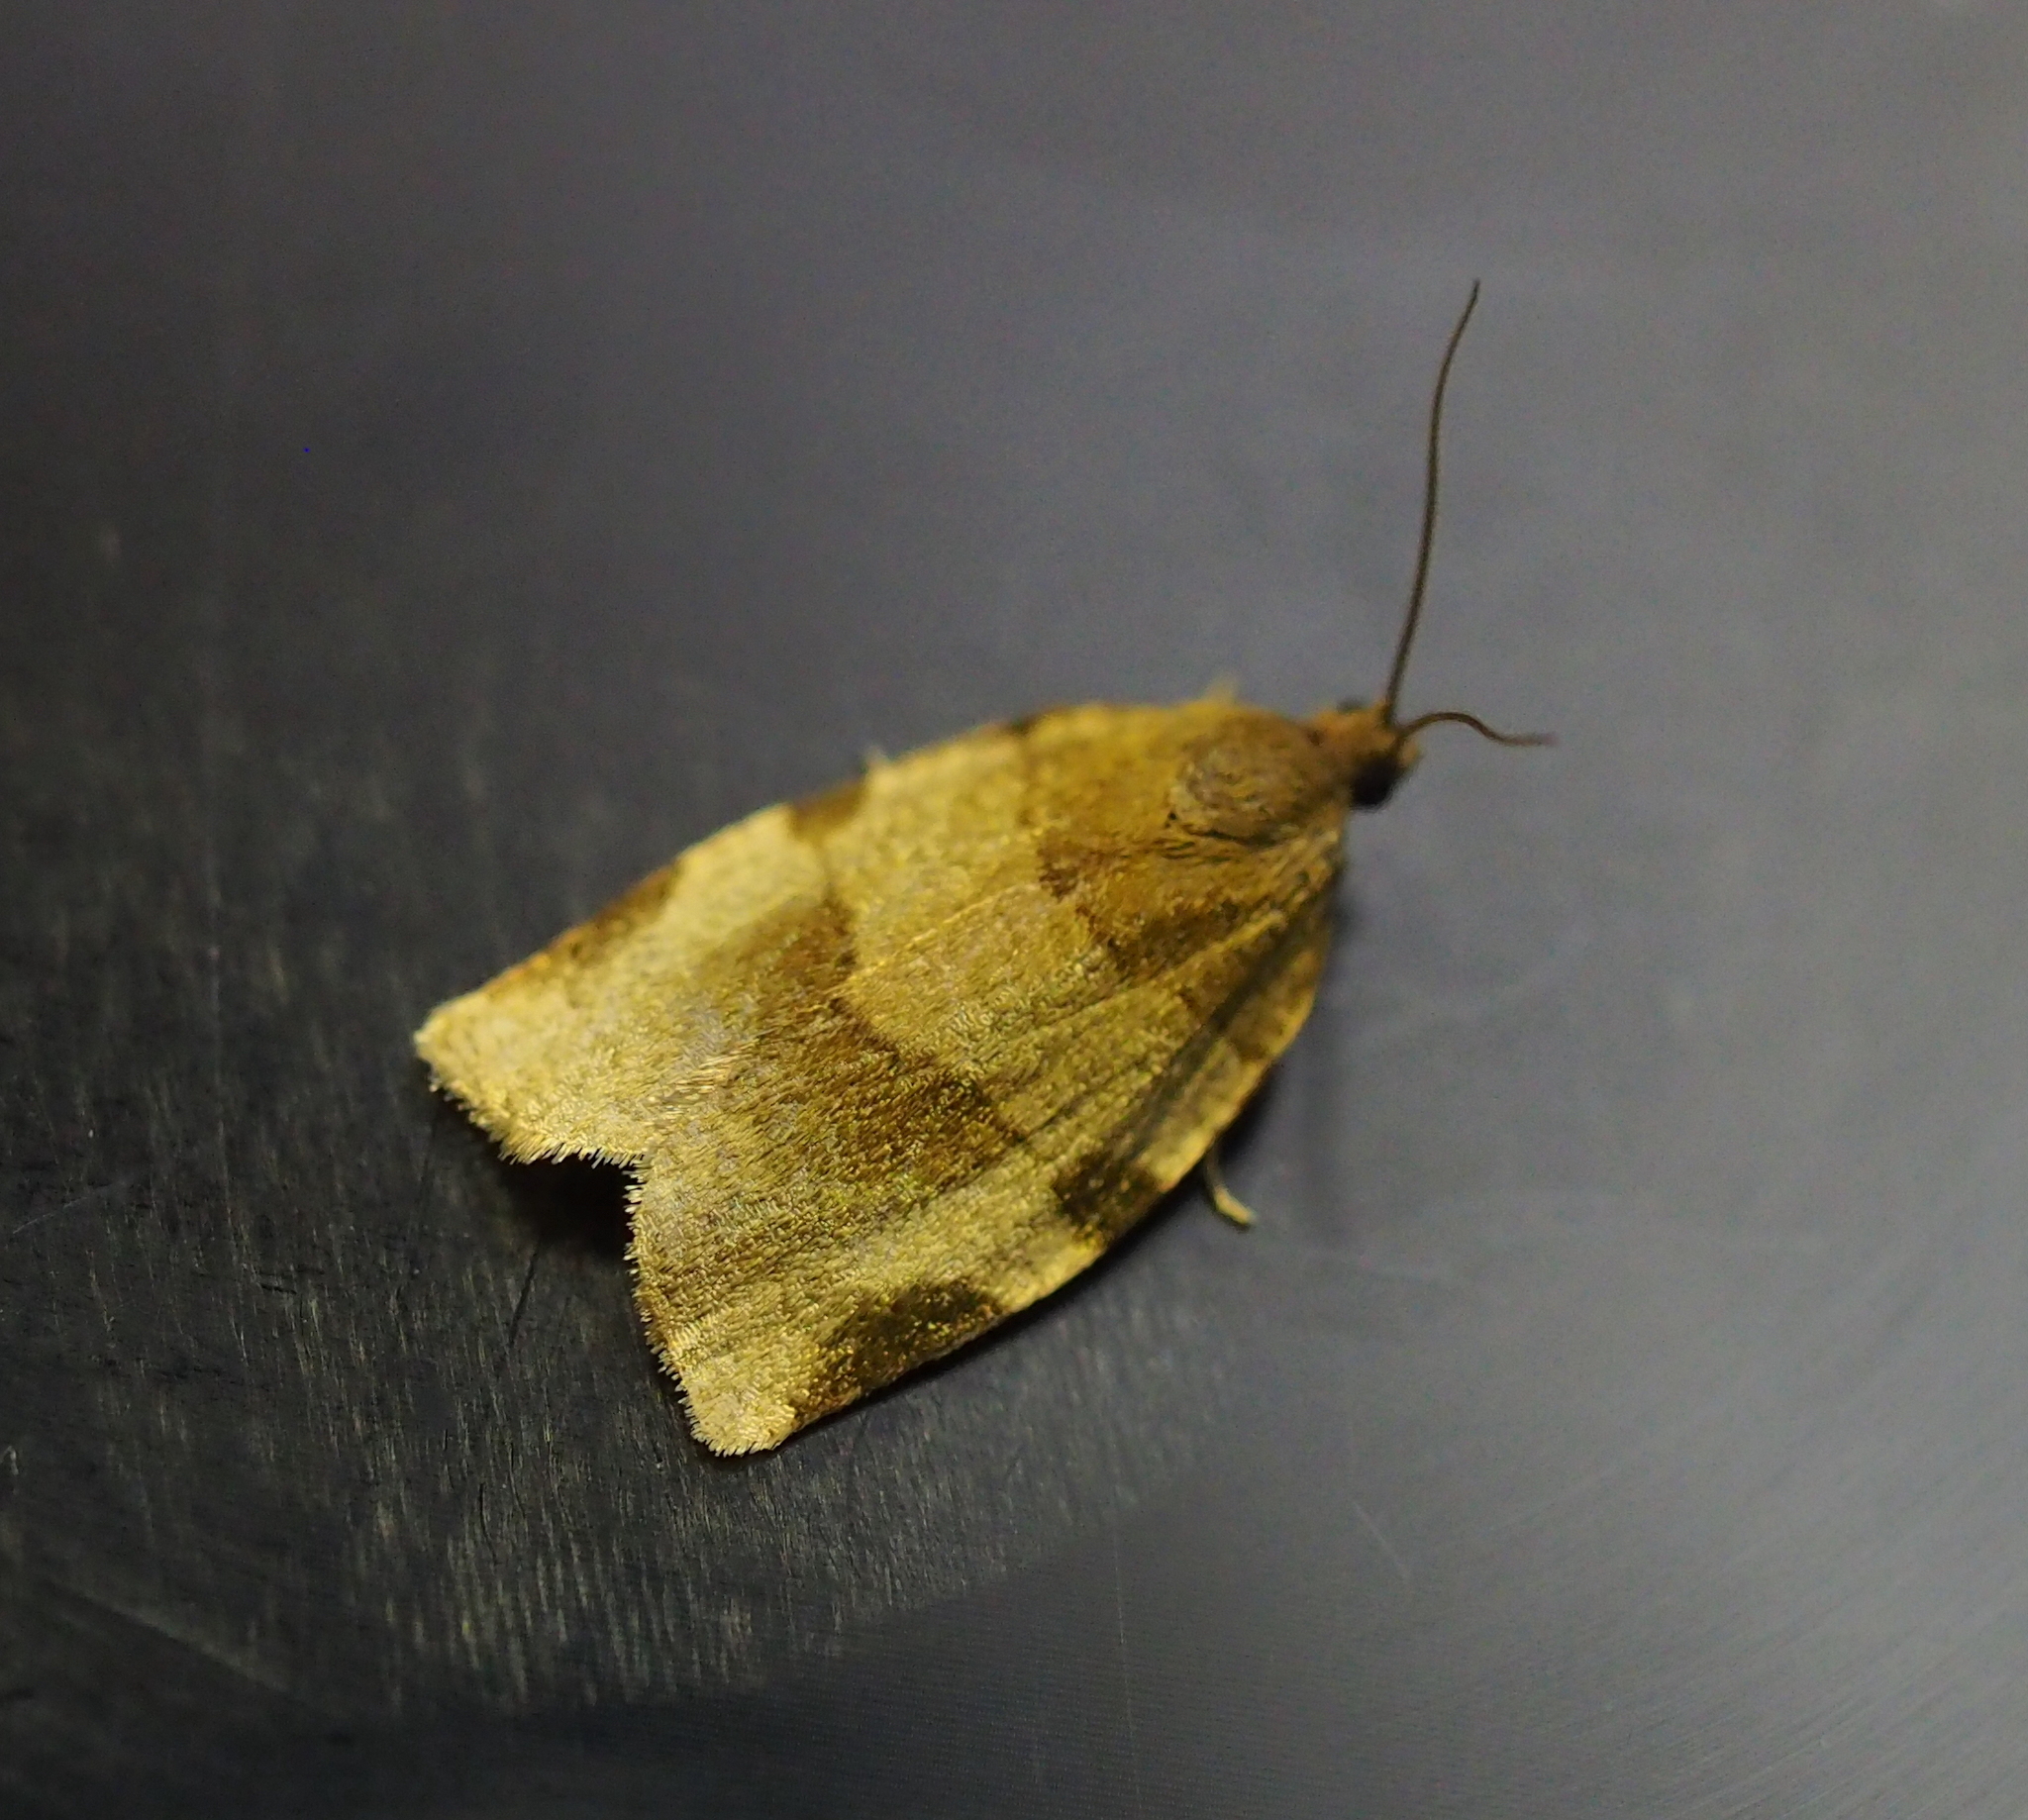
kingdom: Animalia
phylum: Arthropoda
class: Insecta
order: Lepidoptera
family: Tortricidae
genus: Choristoneura
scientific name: Choristoneura hebenstreitella
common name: Great twist
